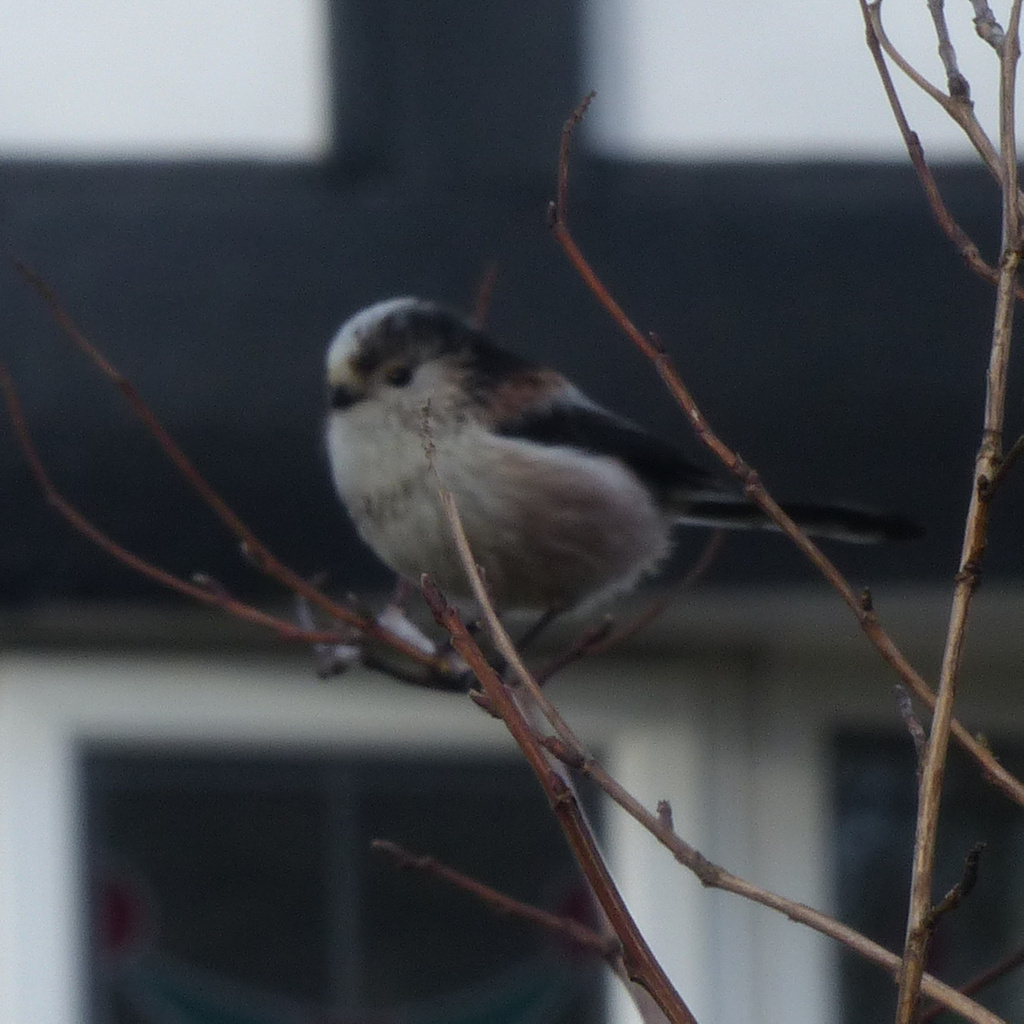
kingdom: Animalia
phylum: Chordata
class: Aves
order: Passeriformes
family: Aegithalidae
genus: Aegithalos
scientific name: Aegithalos caudatus
